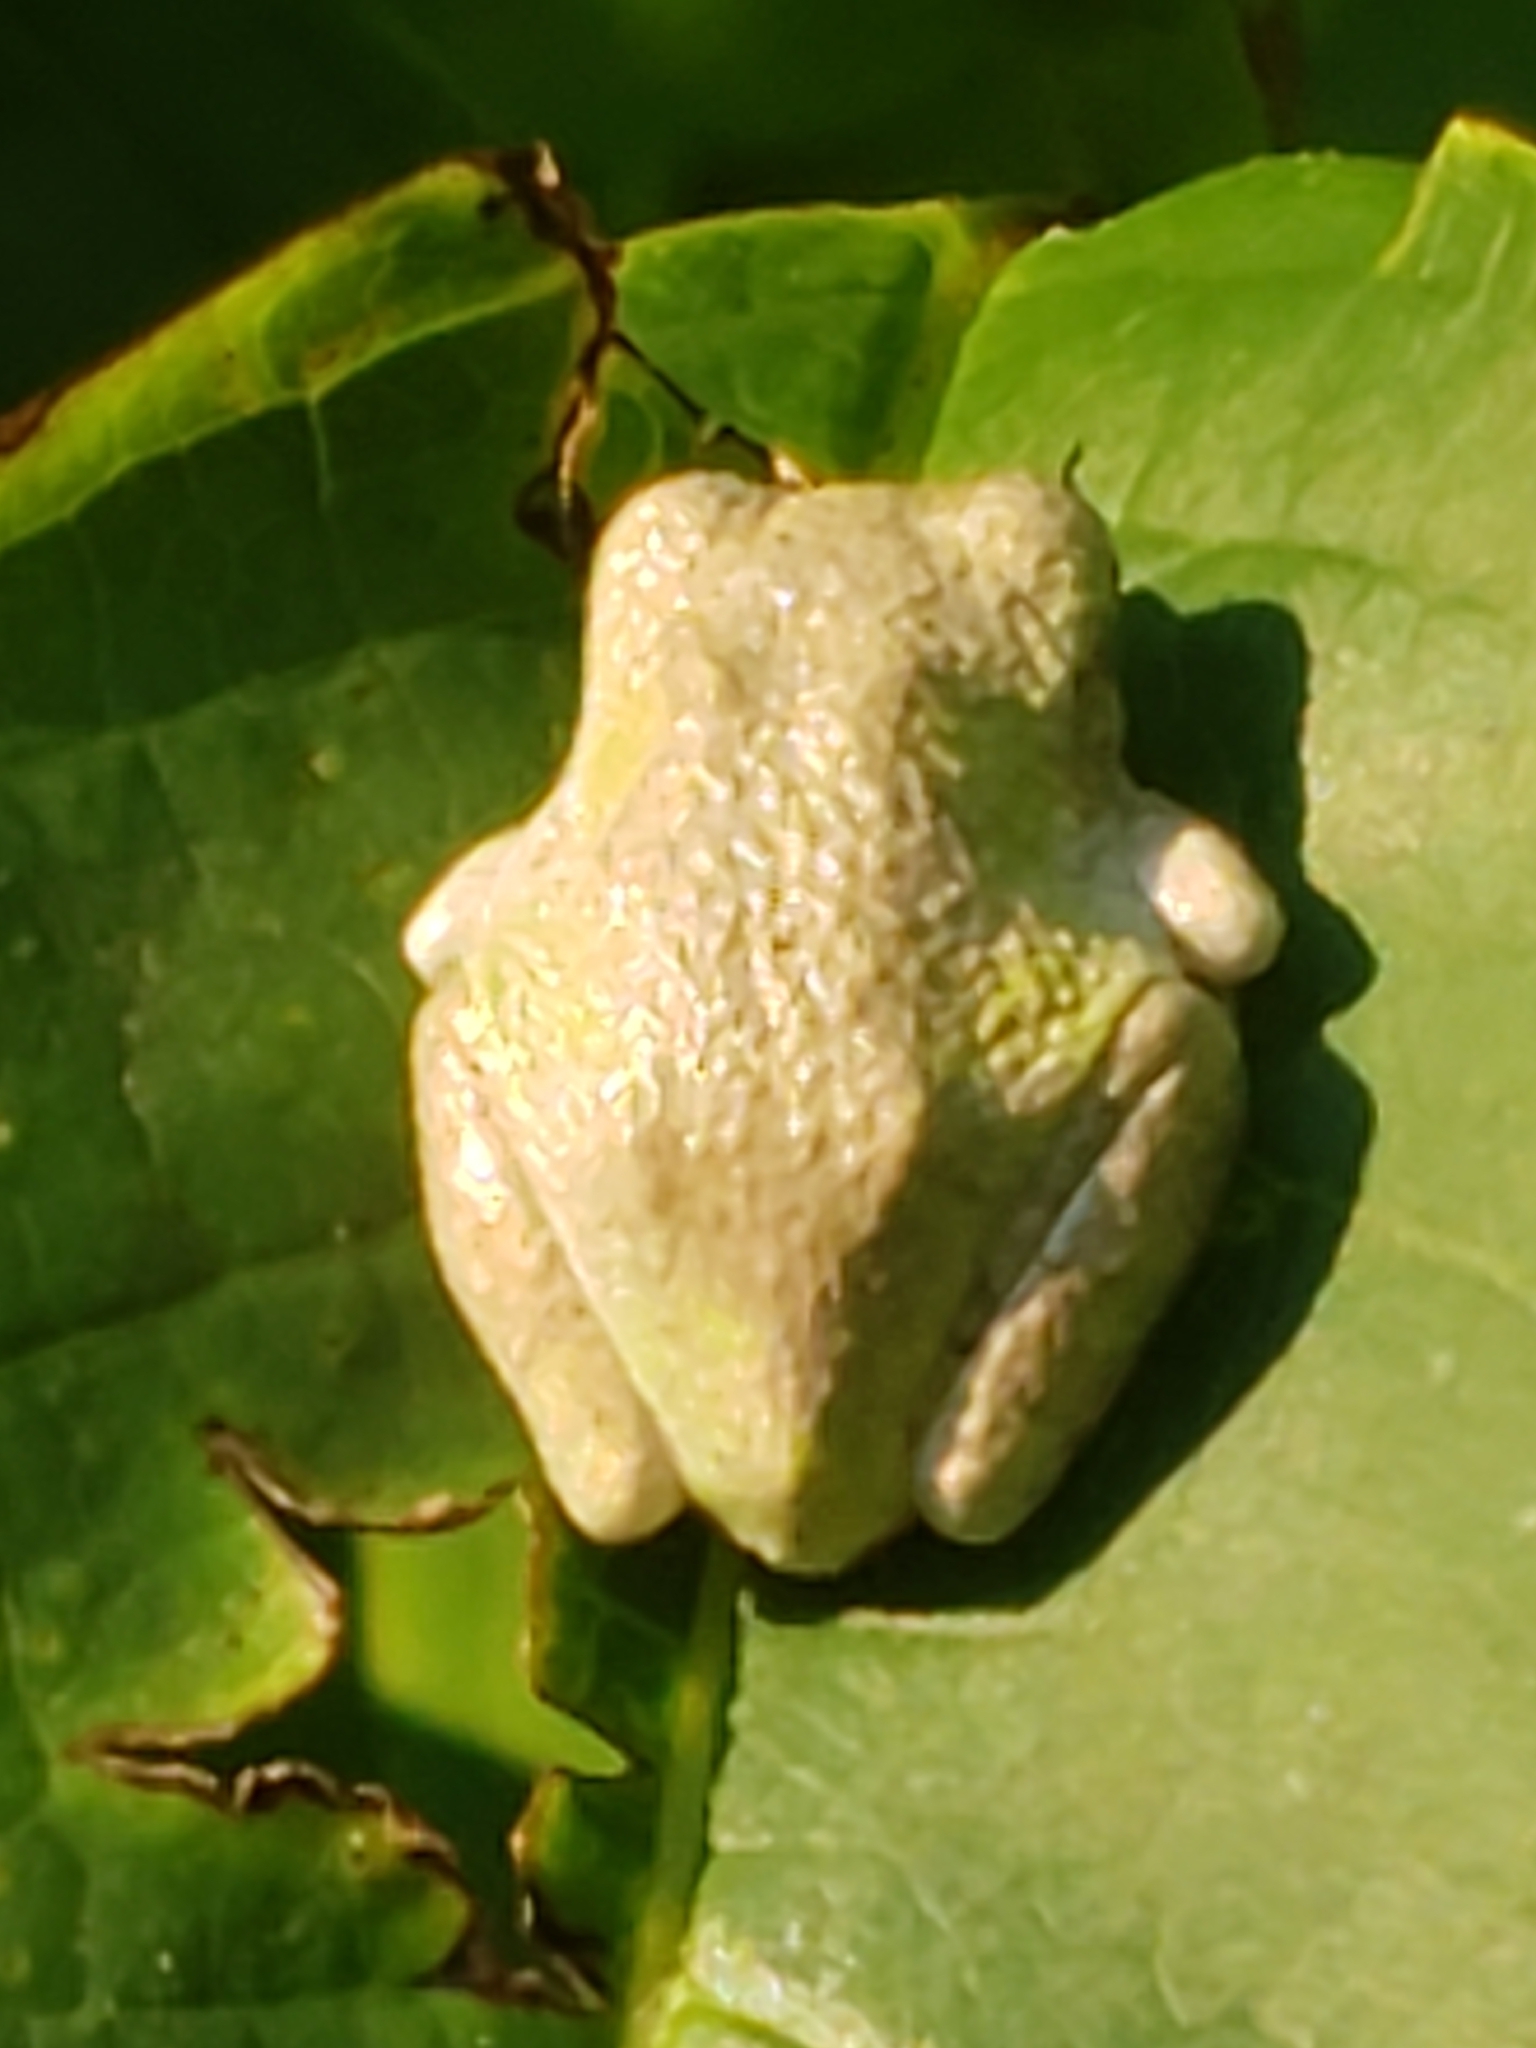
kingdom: Animalia
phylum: Chordata
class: Amphibia
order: Anura
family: Hylidae
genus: Hyla
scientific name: Hyla
